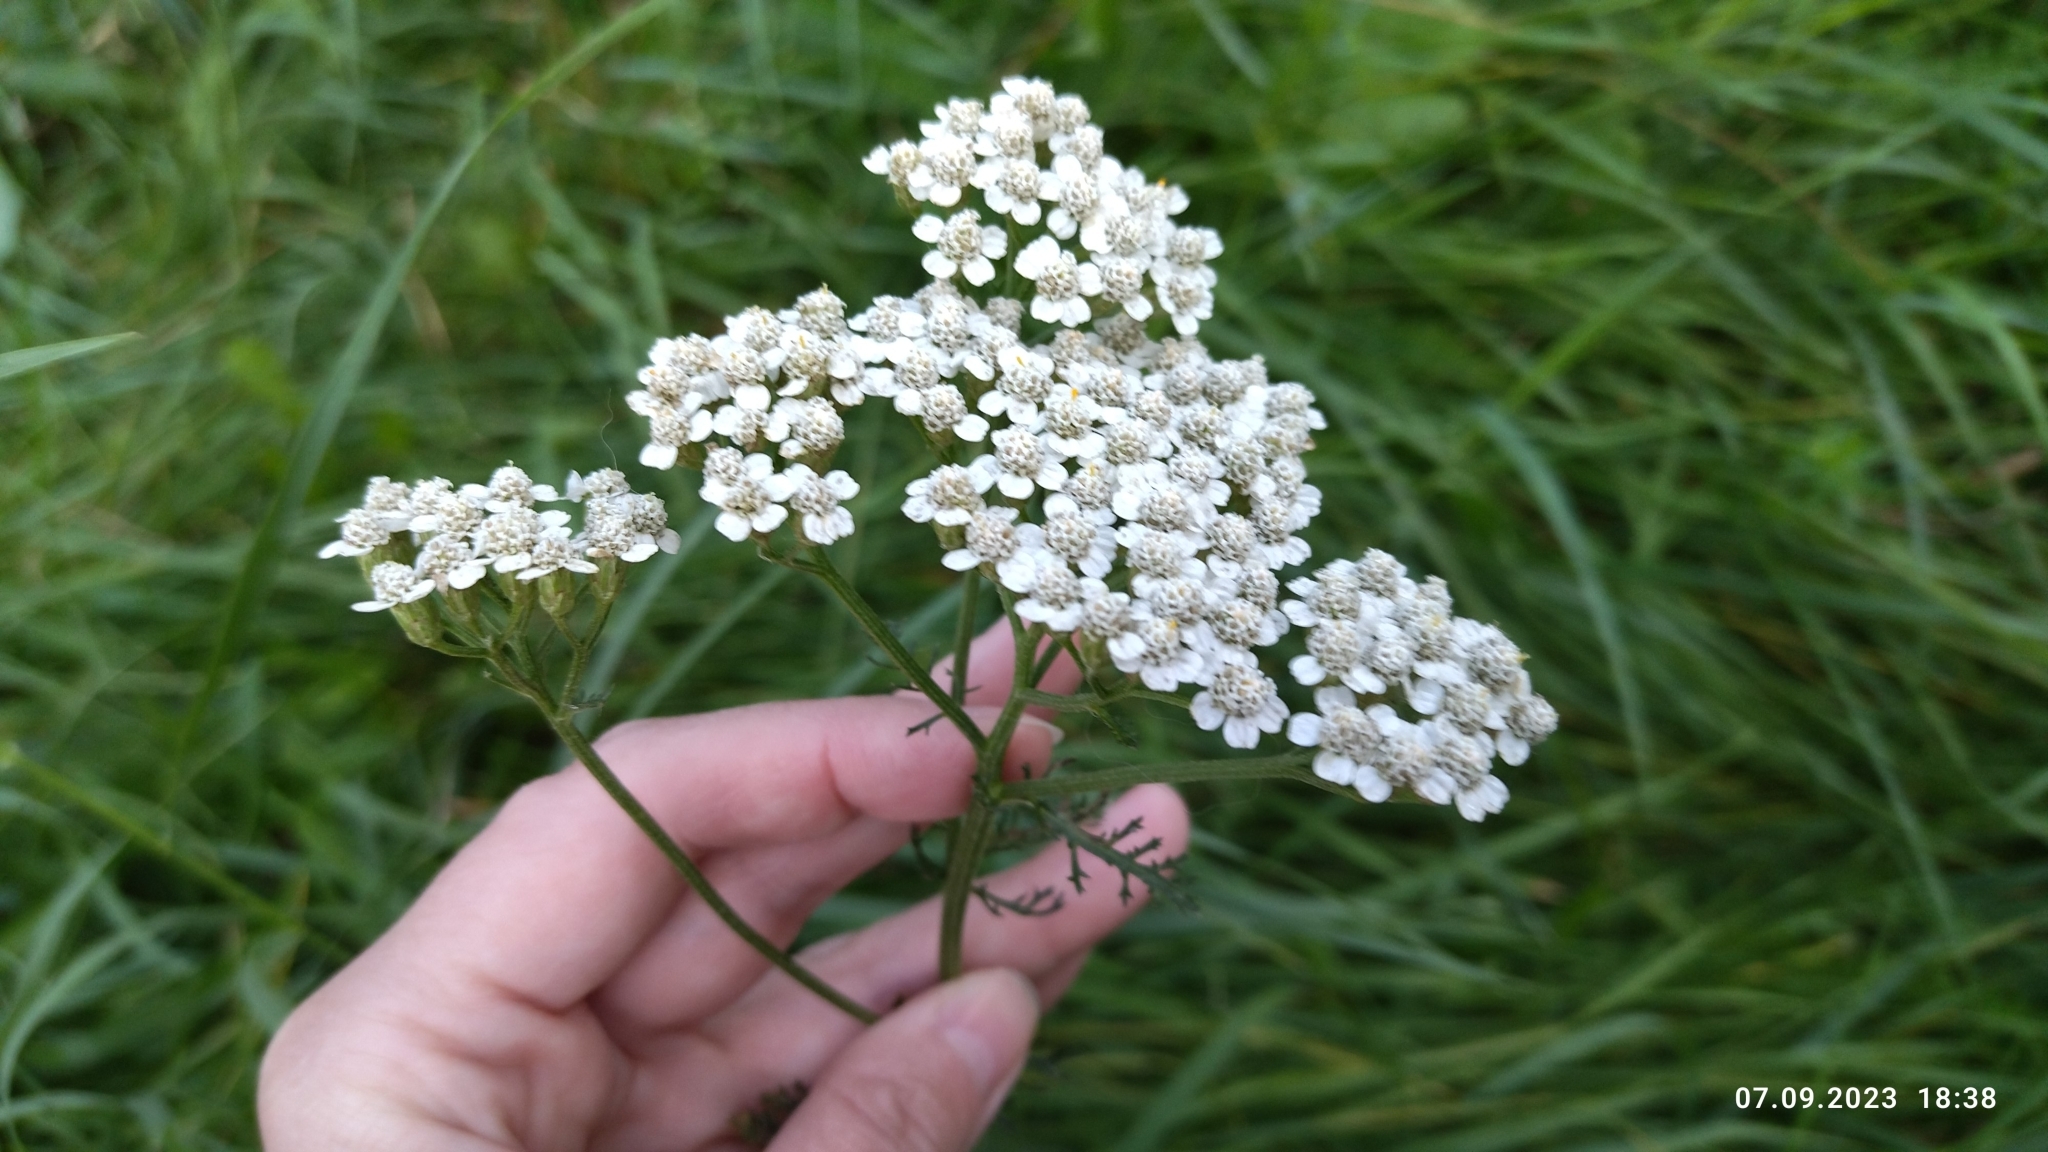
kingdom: Plantae
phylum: Tracheophyta
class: Magnoliopsida
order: Asterales
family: Asteraceae
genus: Achillea
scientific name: Achillea millefolium
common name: Yarrow
